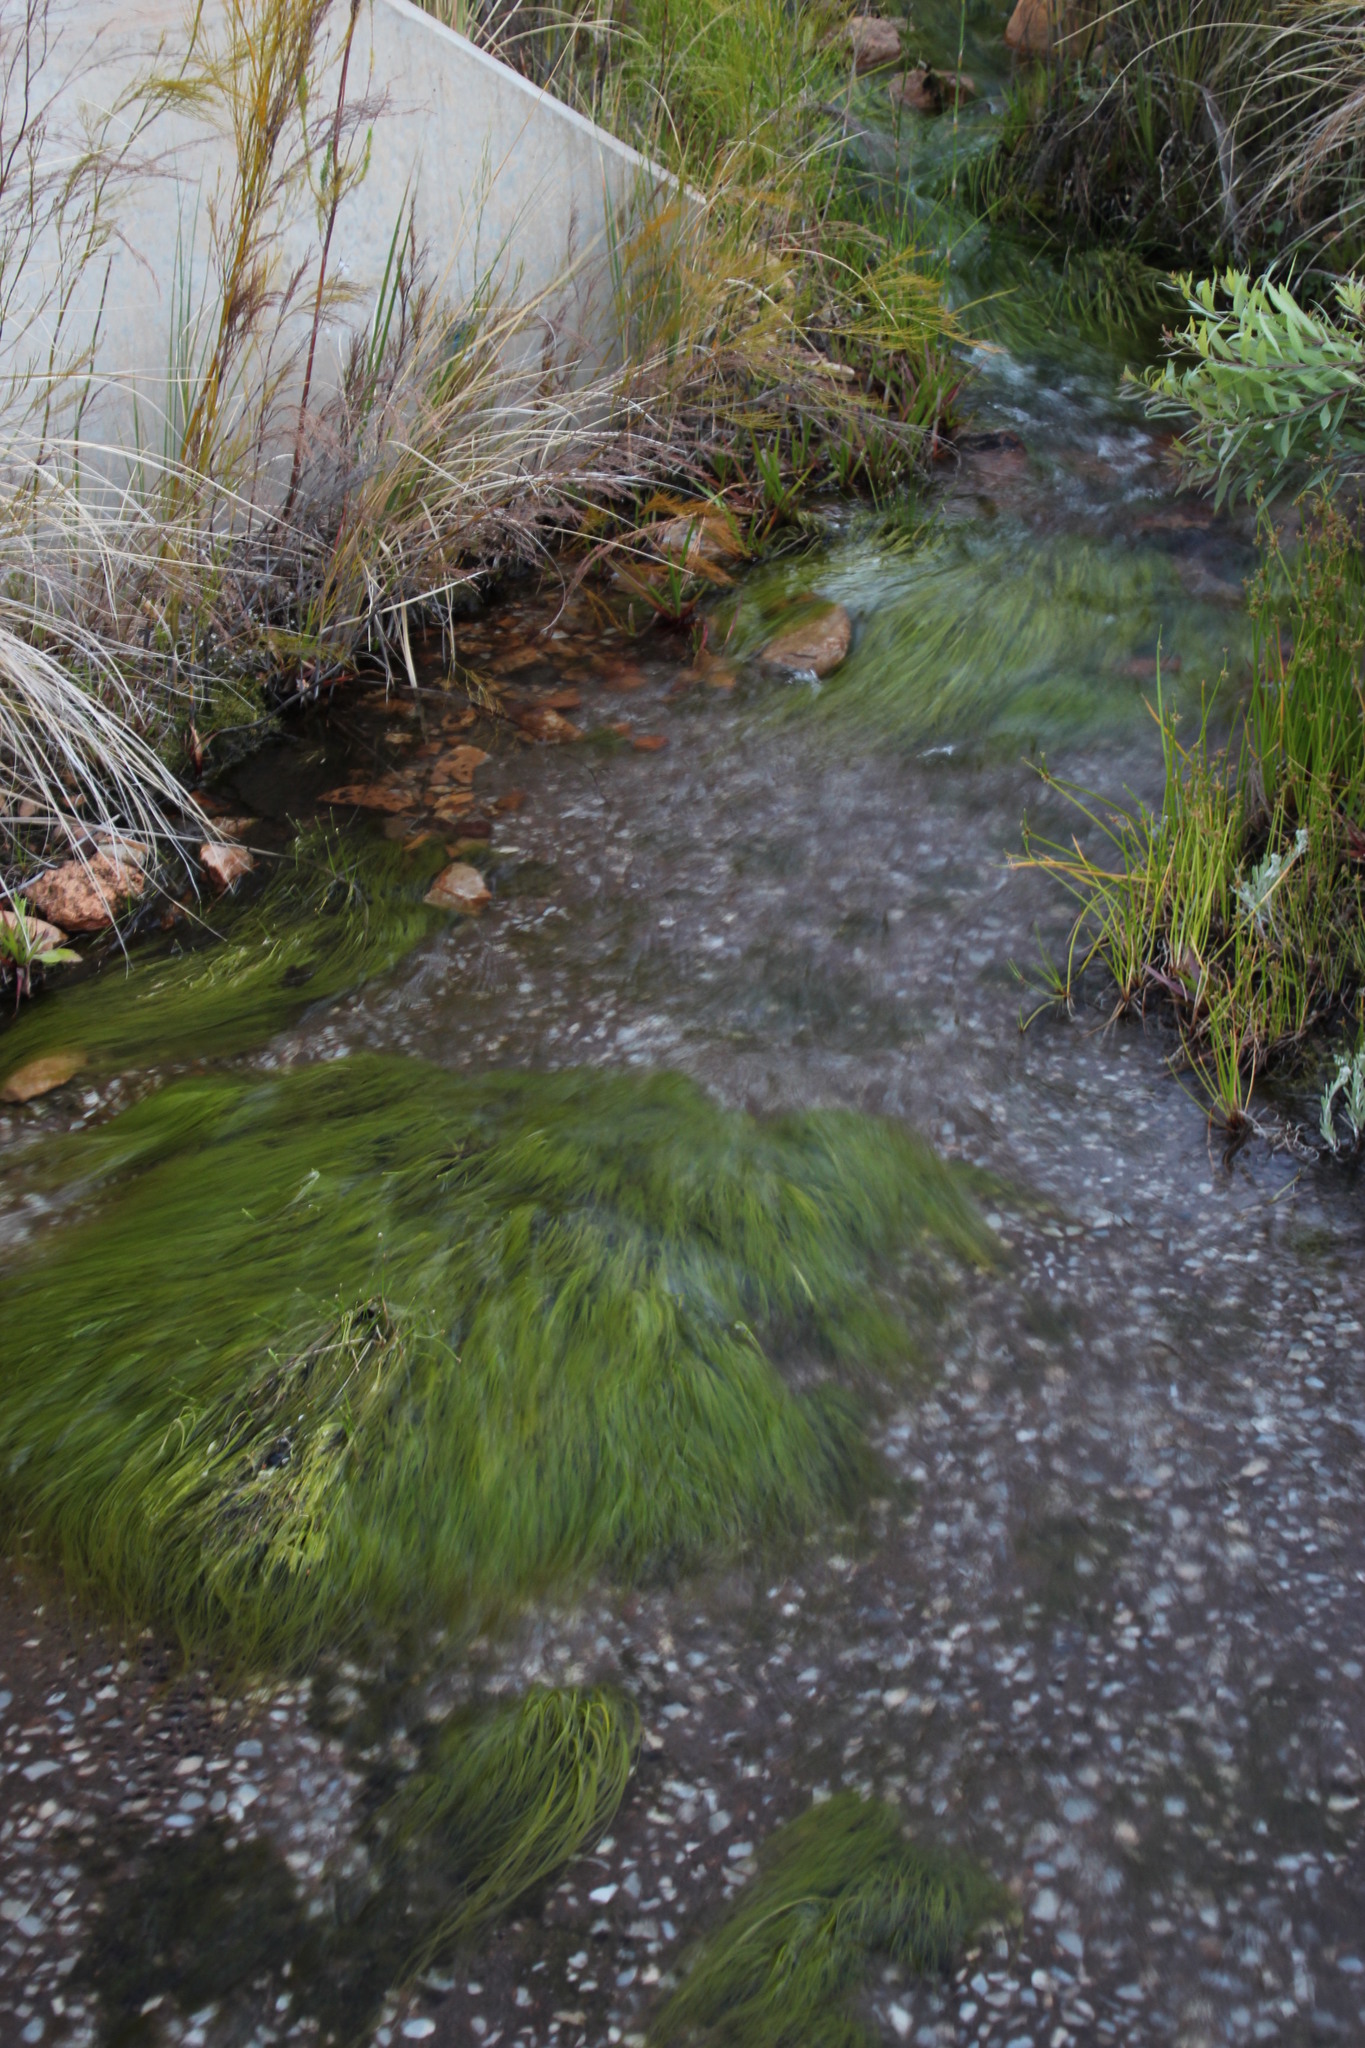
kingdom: Plantae
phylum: Tracheophyta
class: Liliopsida
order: Poales
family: Cyperaceae
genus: Isolepis
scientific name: Isolepis digitata
